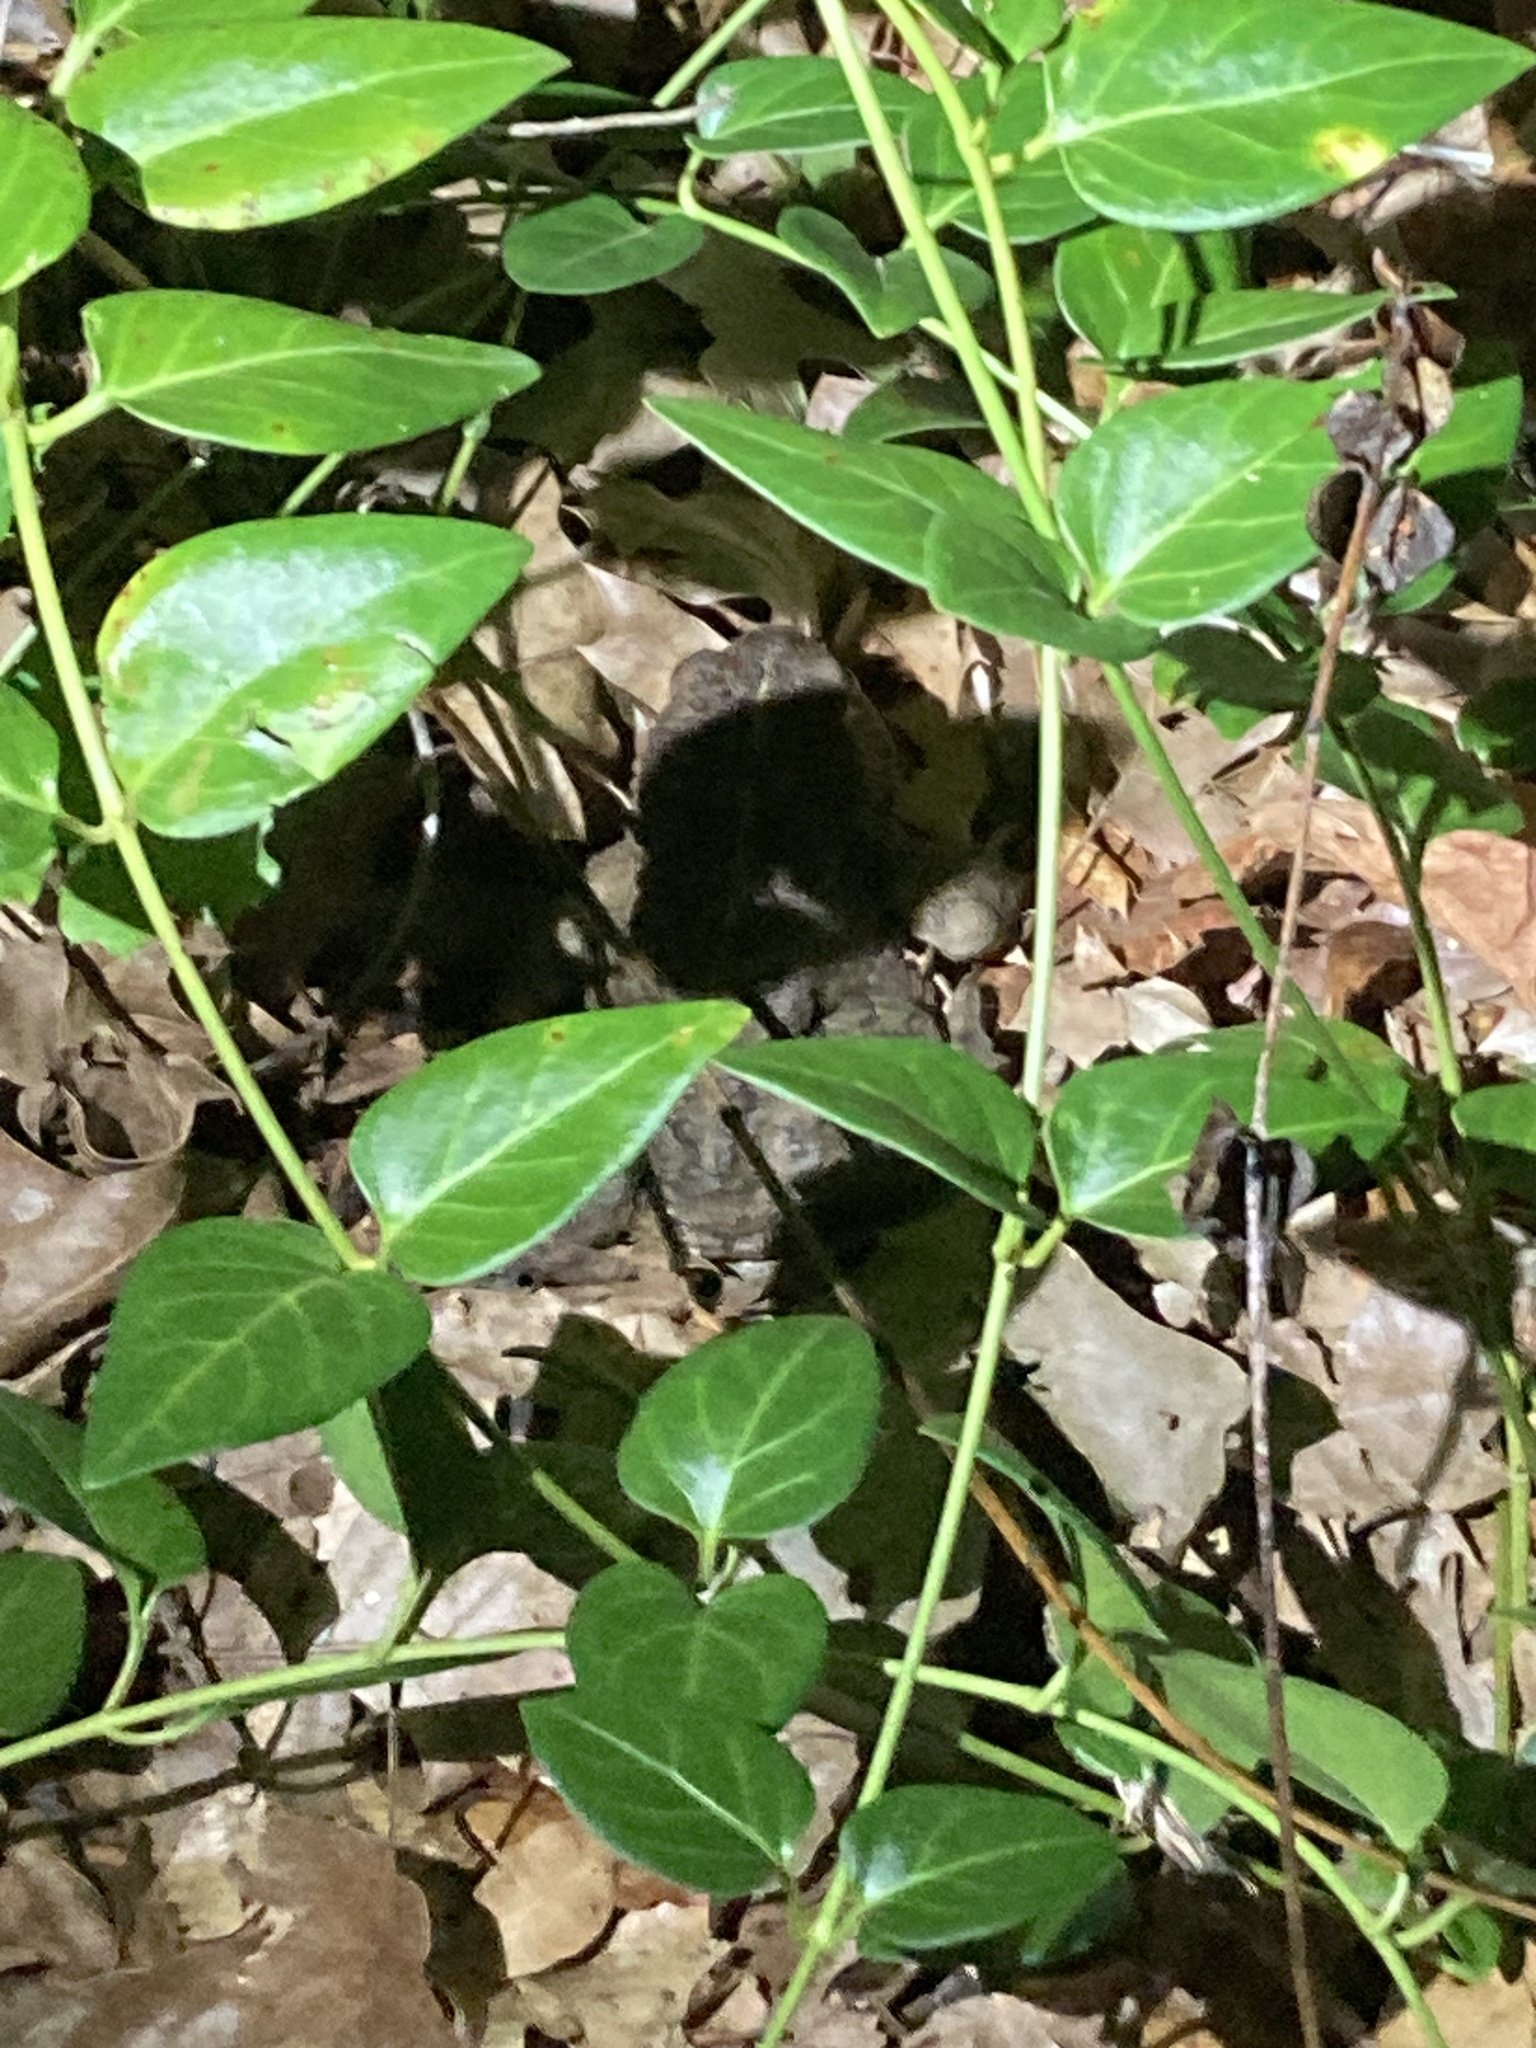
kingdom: Plantae
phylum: Tracheophyta
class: Magnoliopsida
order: Gentianales
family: Apocynaceae
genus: Vinca
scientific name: Vinca major
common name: Greater periwinkle
